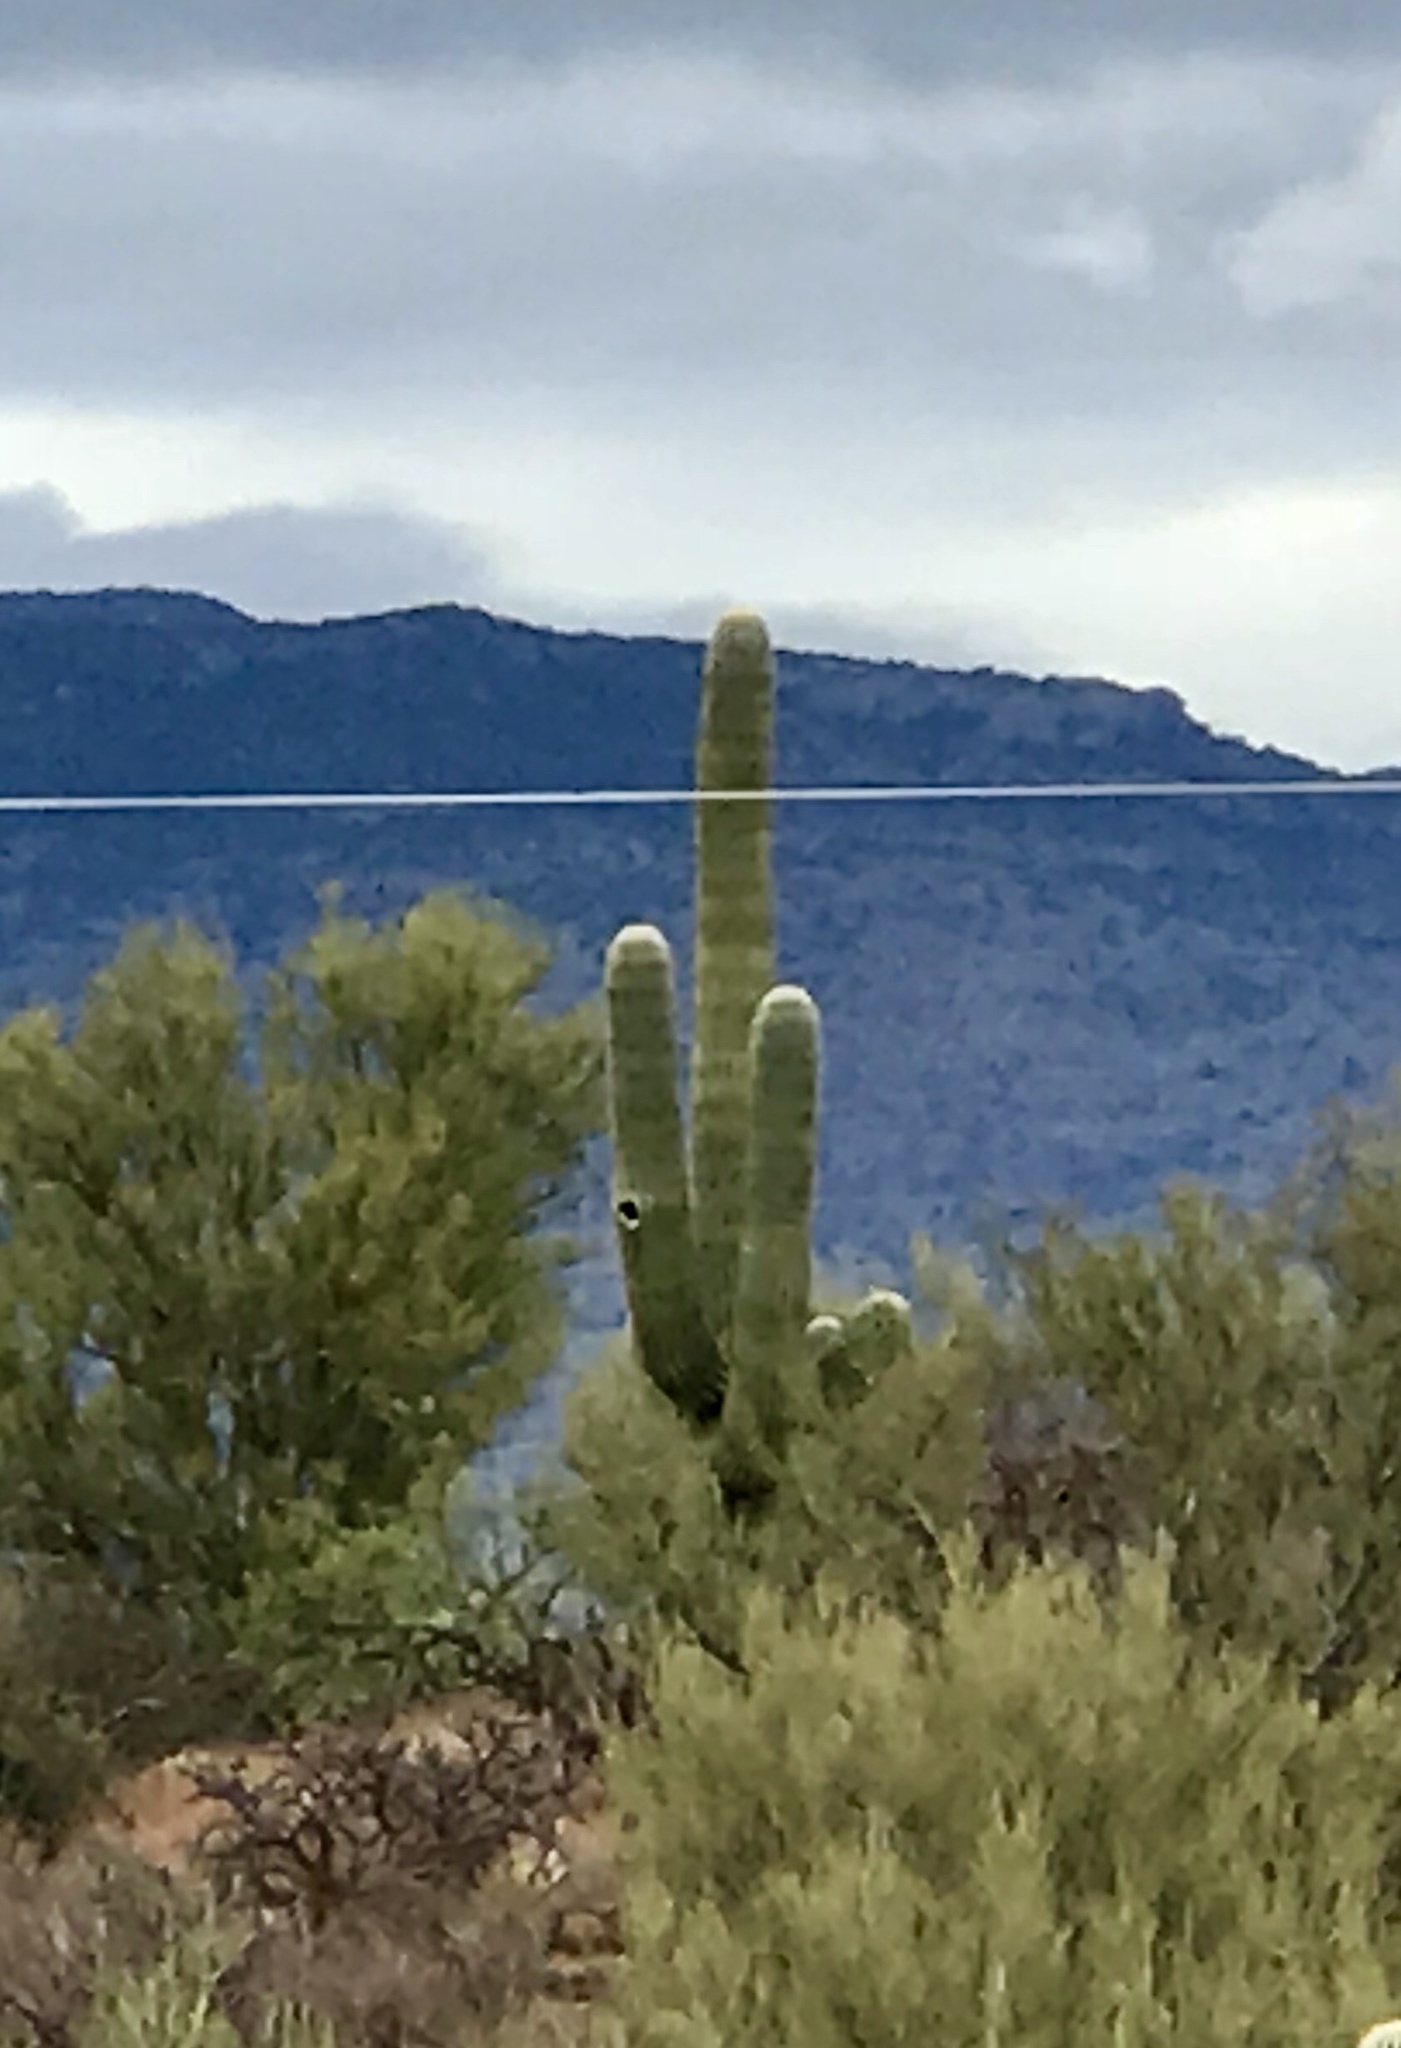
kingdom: Plantae
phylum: Tracheophyta
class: Magnoliopsida
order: Caryophyllales
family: Cactaceae
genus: Carnegiea
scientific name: Carnegiea gigantea
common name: Saguaro
